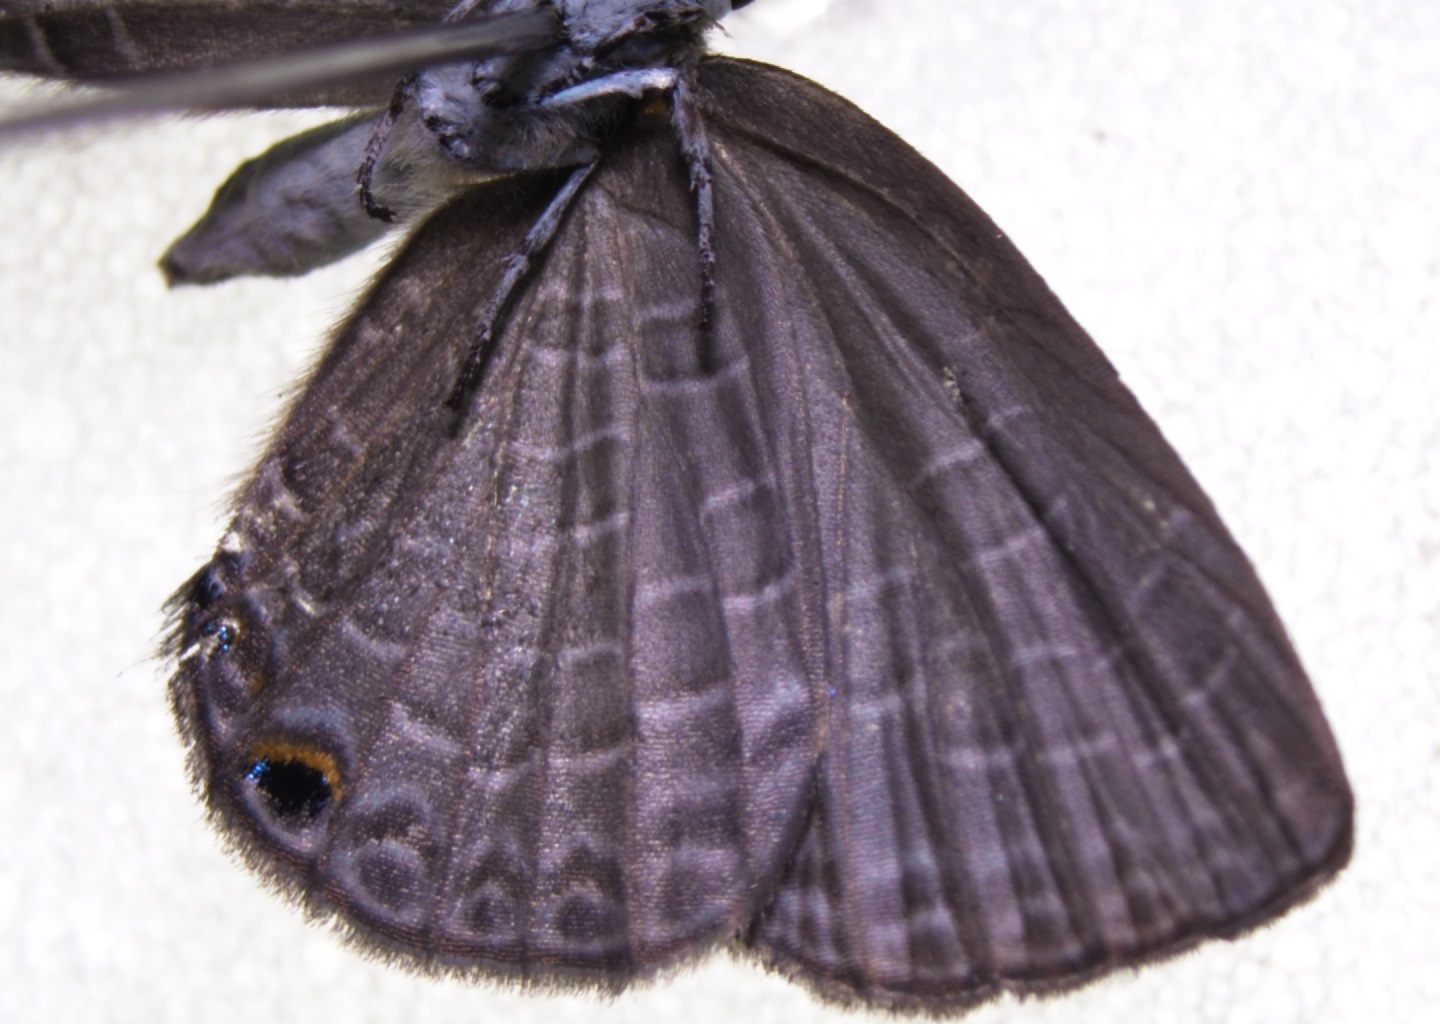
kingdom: Animalia
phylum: Arthropoda
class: Insecta
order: Lepidoptera
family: Lycaenidae
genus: Jamides
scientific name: Jamides walkeri
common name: Cook islands blue
